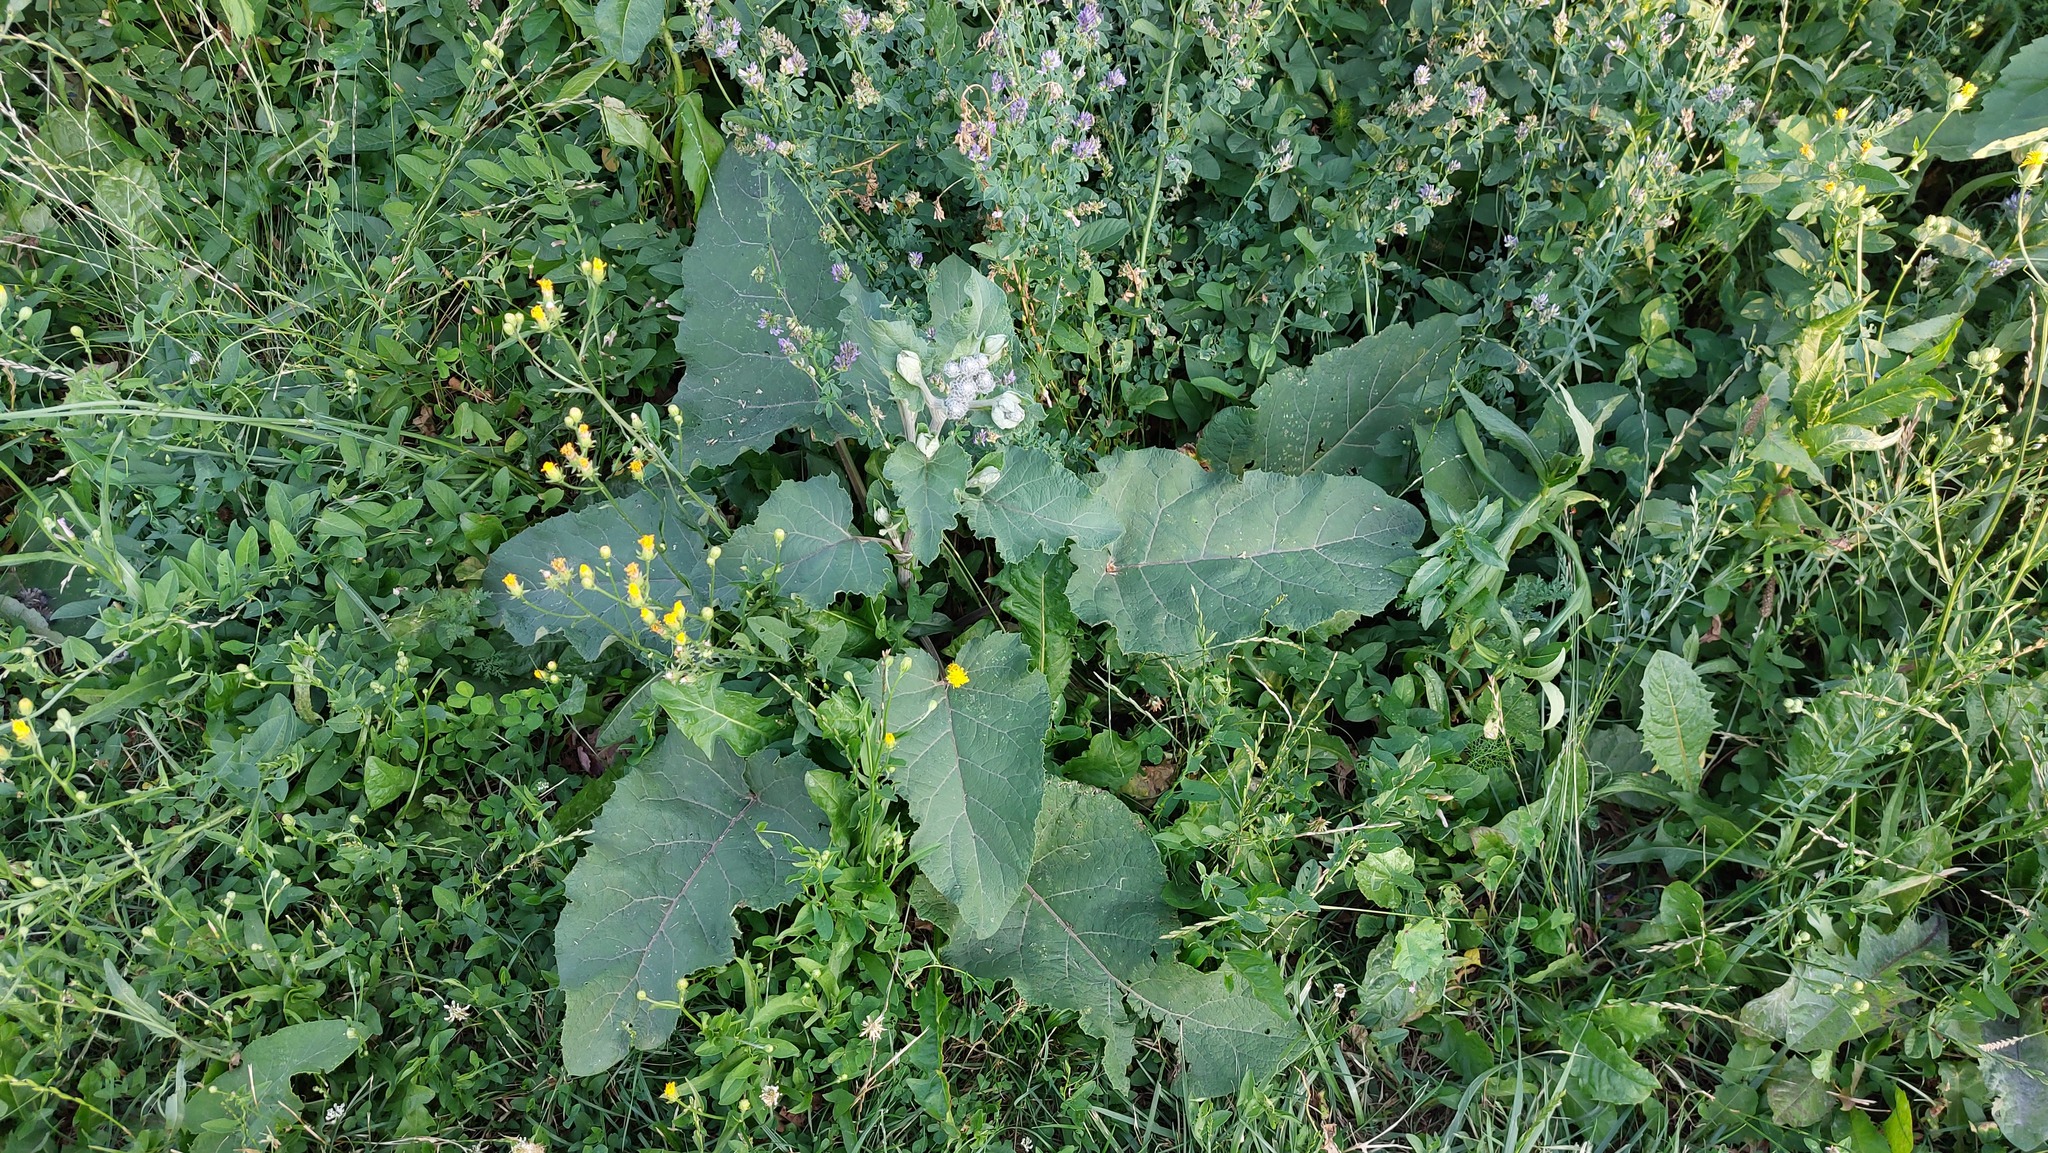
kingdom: Plantae
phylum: Tracheophyta
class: Magnoliopsida
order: Asterales
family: Asteraceae
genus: Arctium
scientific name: Arctium tomentosum
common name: Woolly burdock
